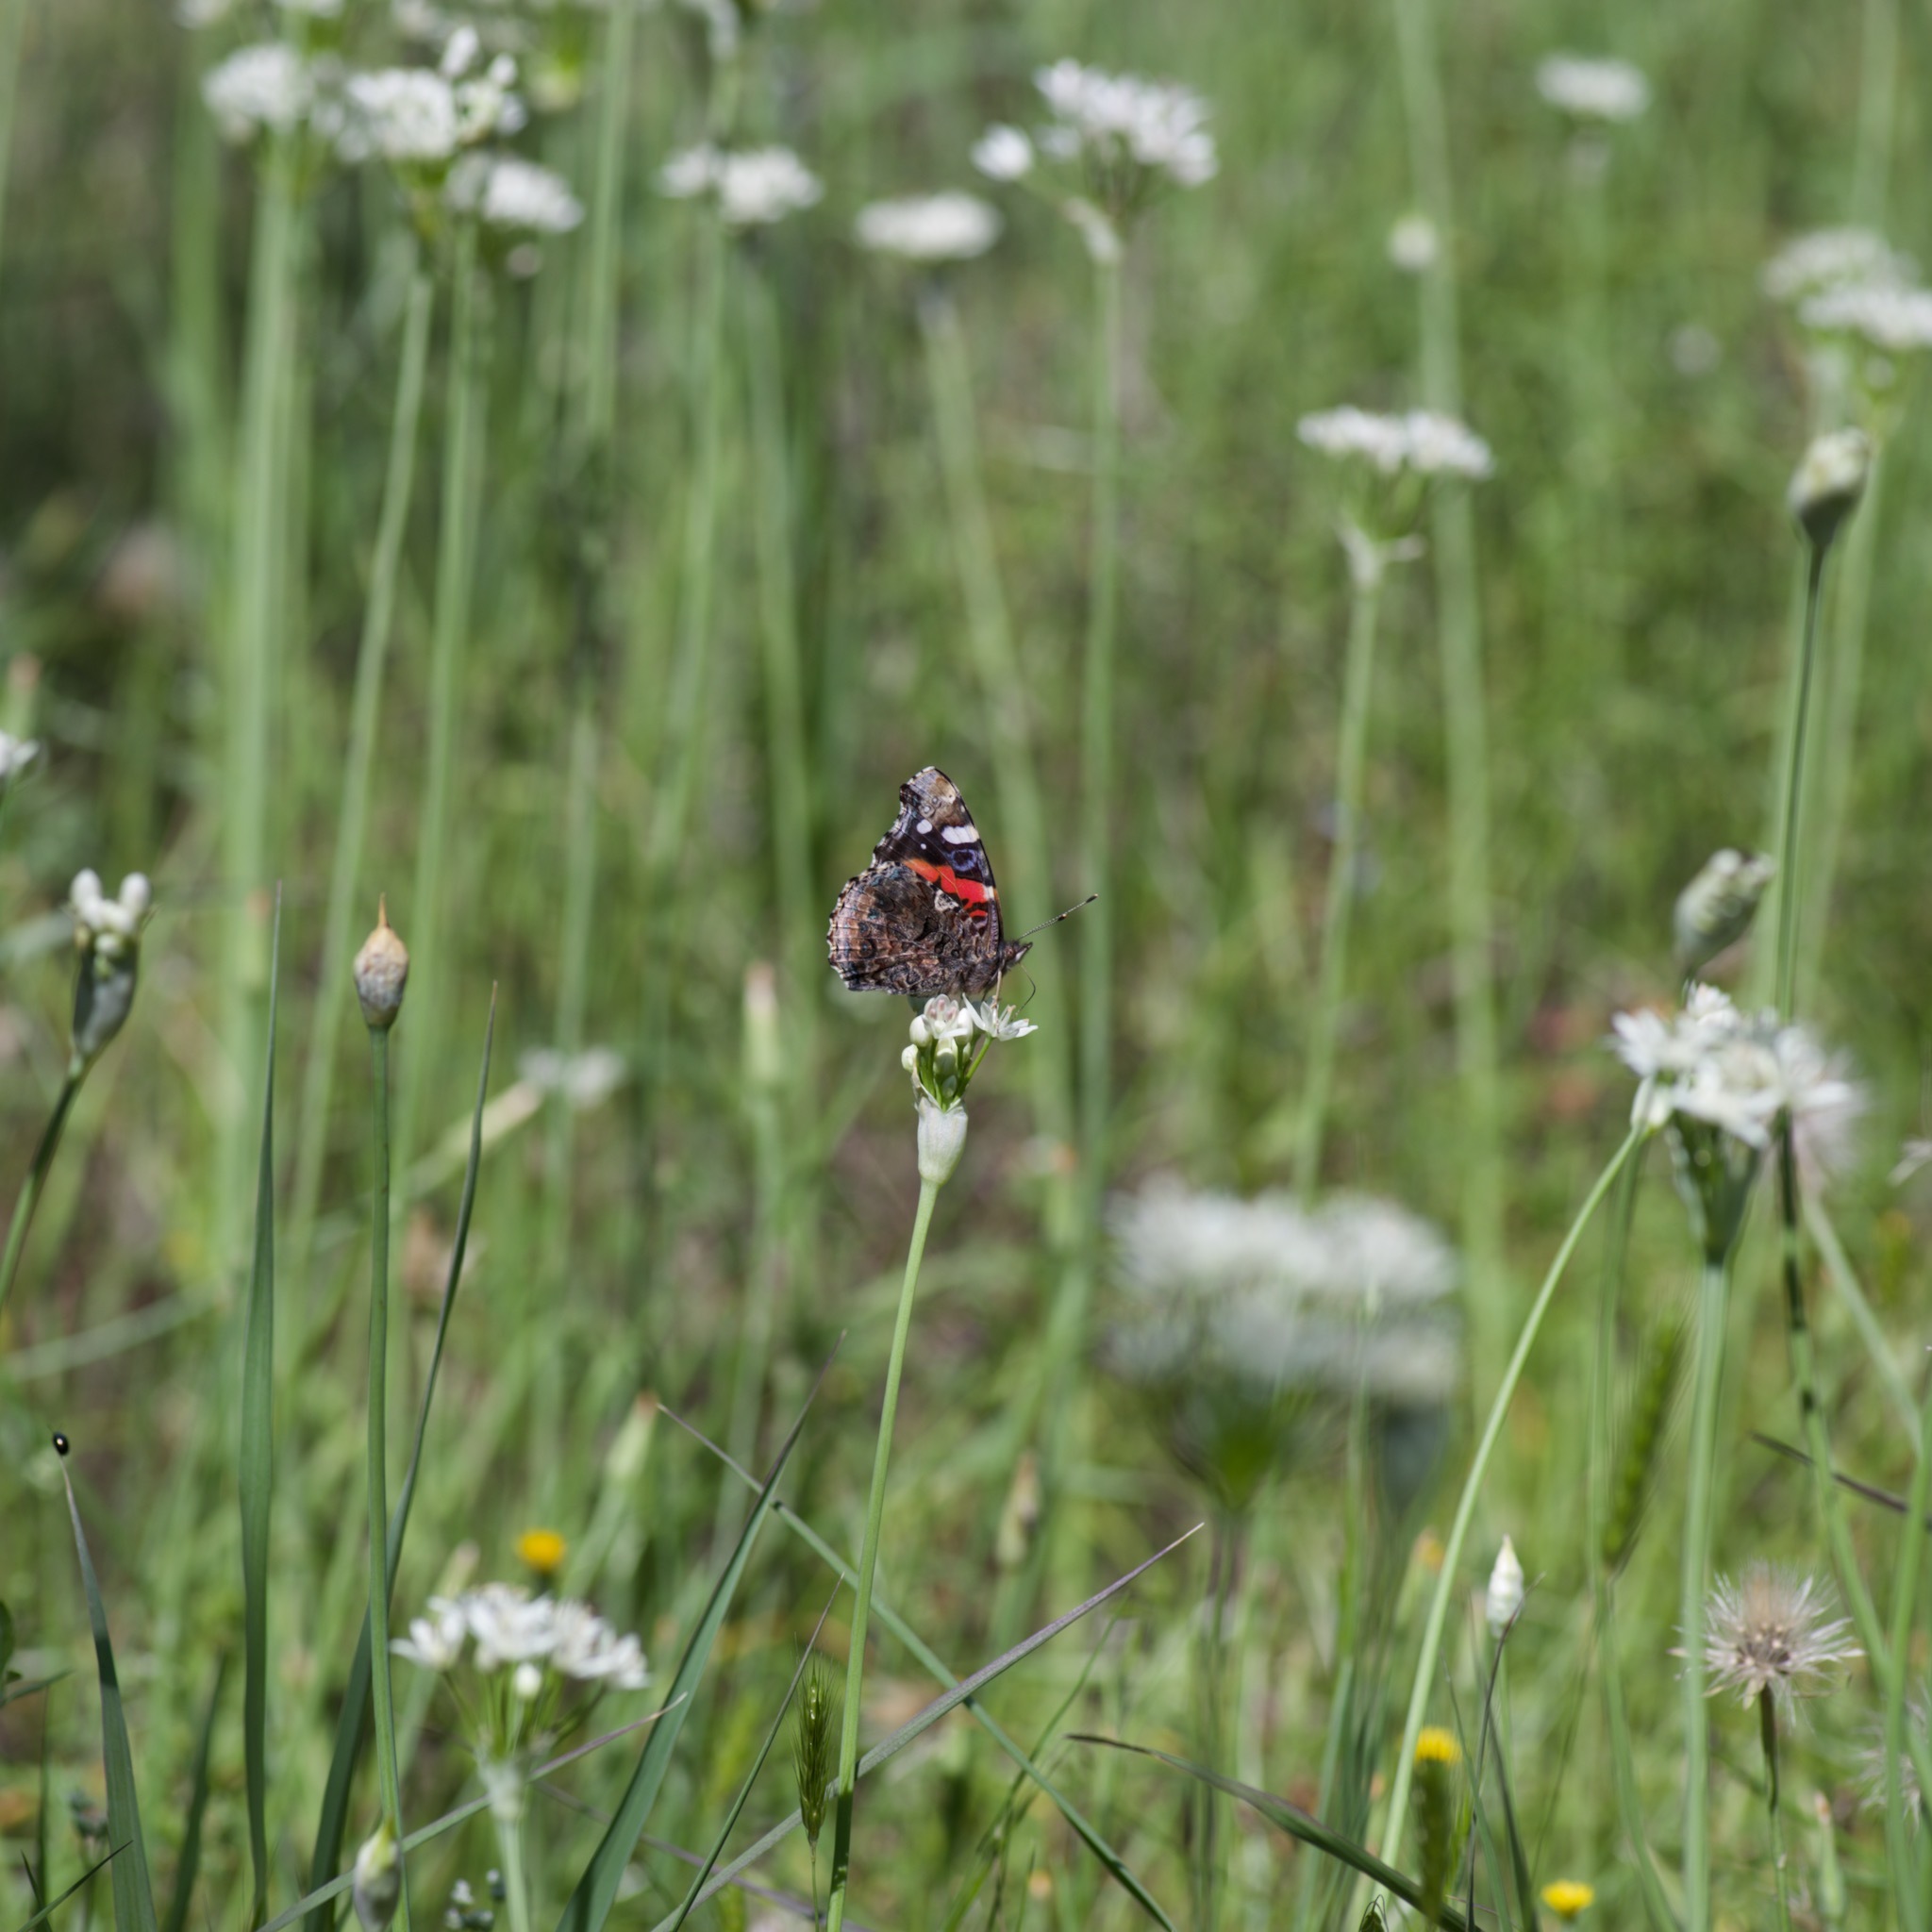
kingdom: Animalia
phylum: Arthropoda
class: Insecta
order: Lepidoptera
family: Nymphalidae
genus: Vanessa
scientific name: Vanessa atalanta
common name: Red admiral
